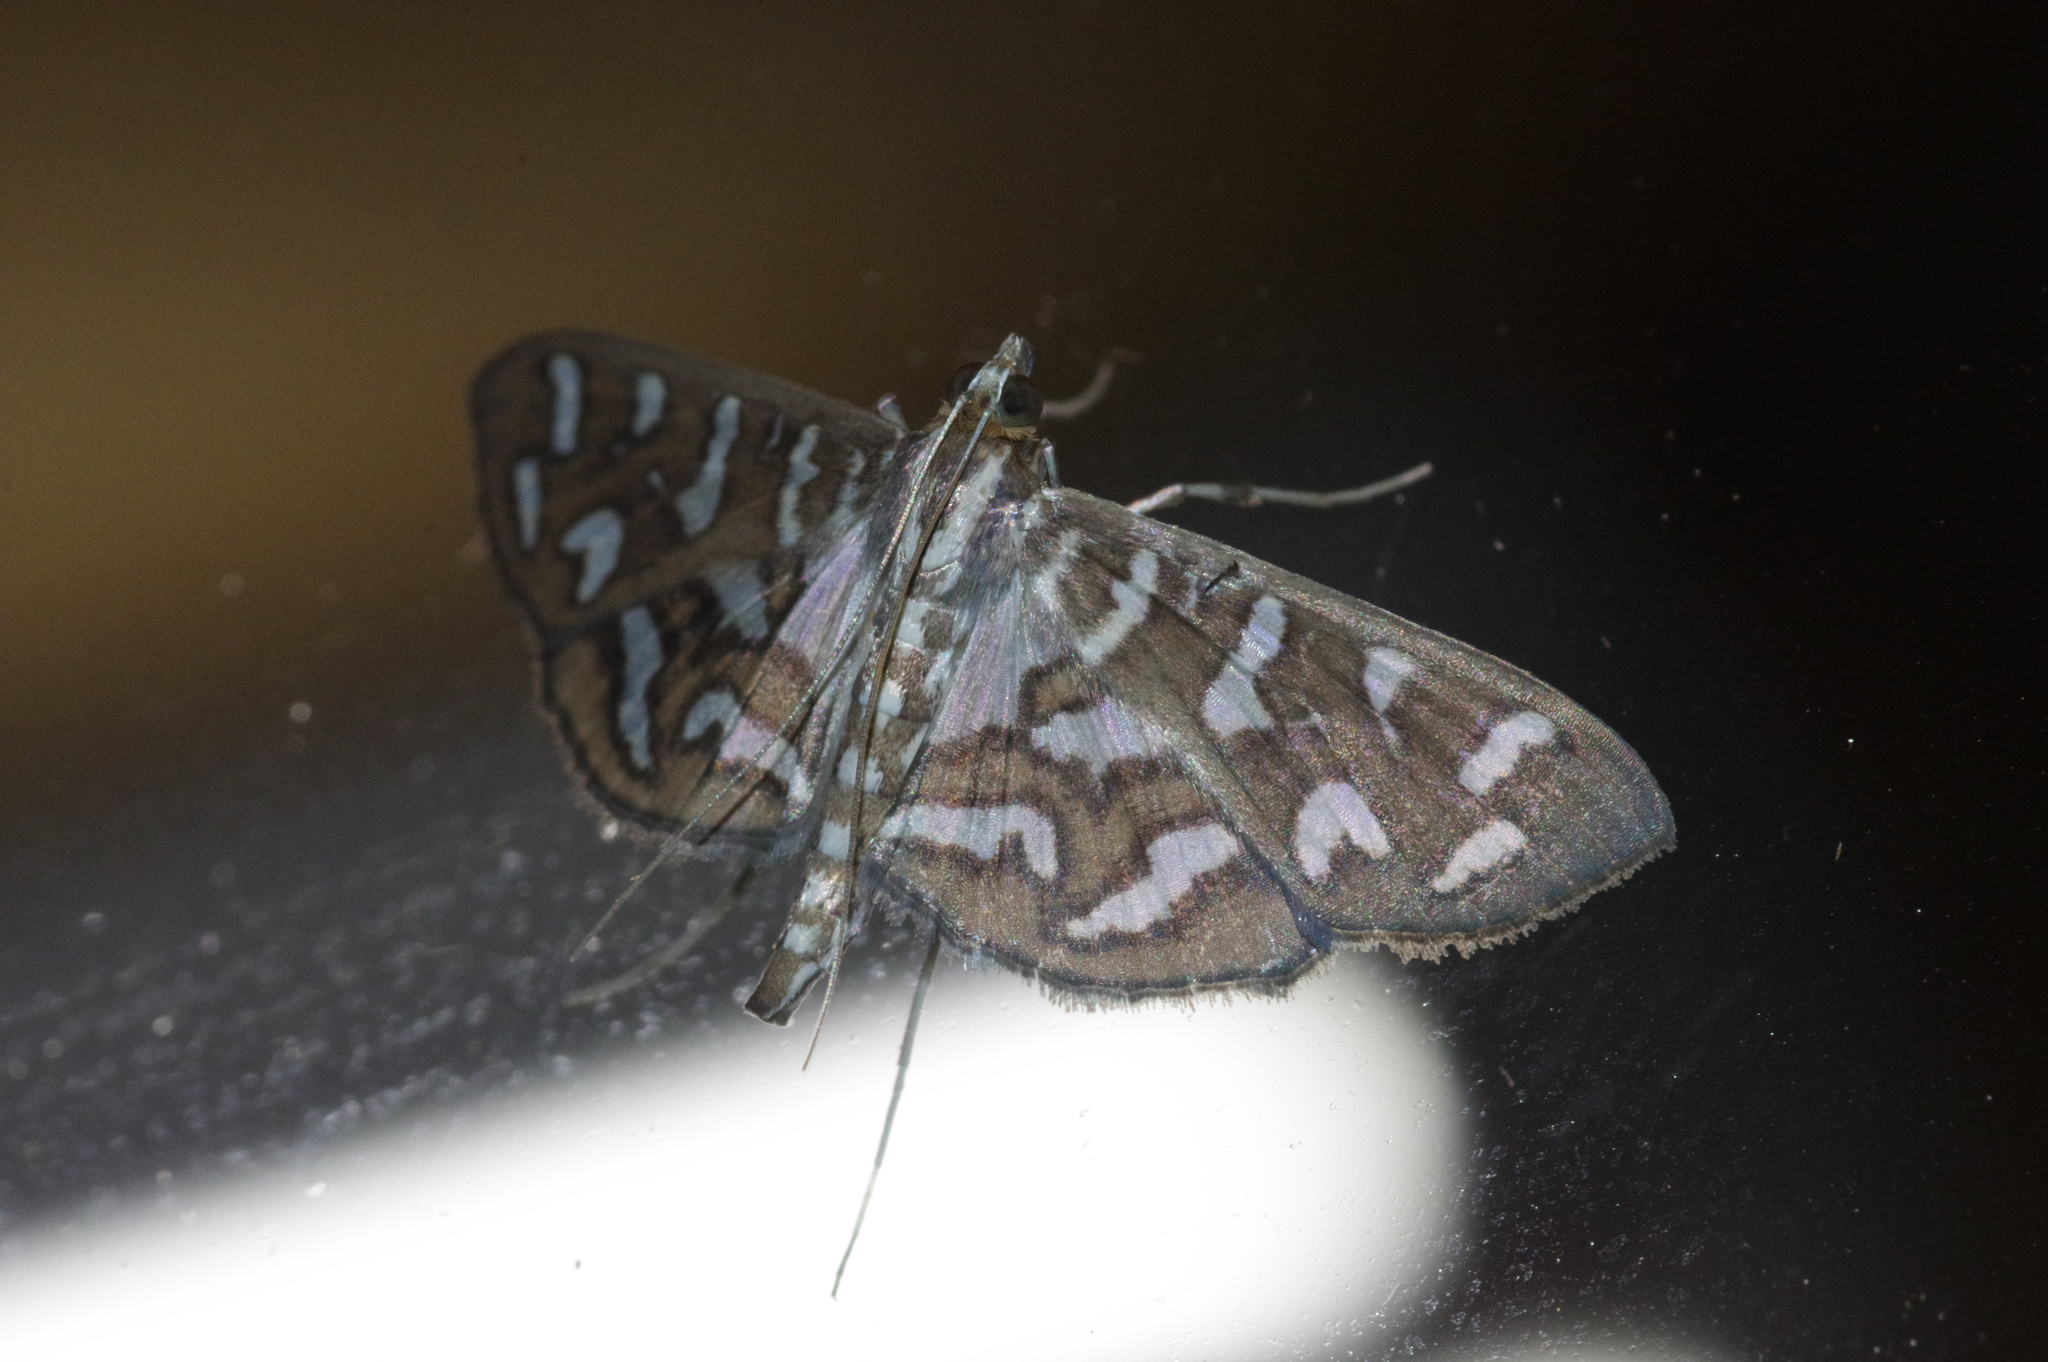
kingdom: Animalia
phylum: Arthropoda
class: Insecta
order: Lepidoptera
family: Crambidae
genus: Nausinoe
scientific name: Nausinoe perspectata
